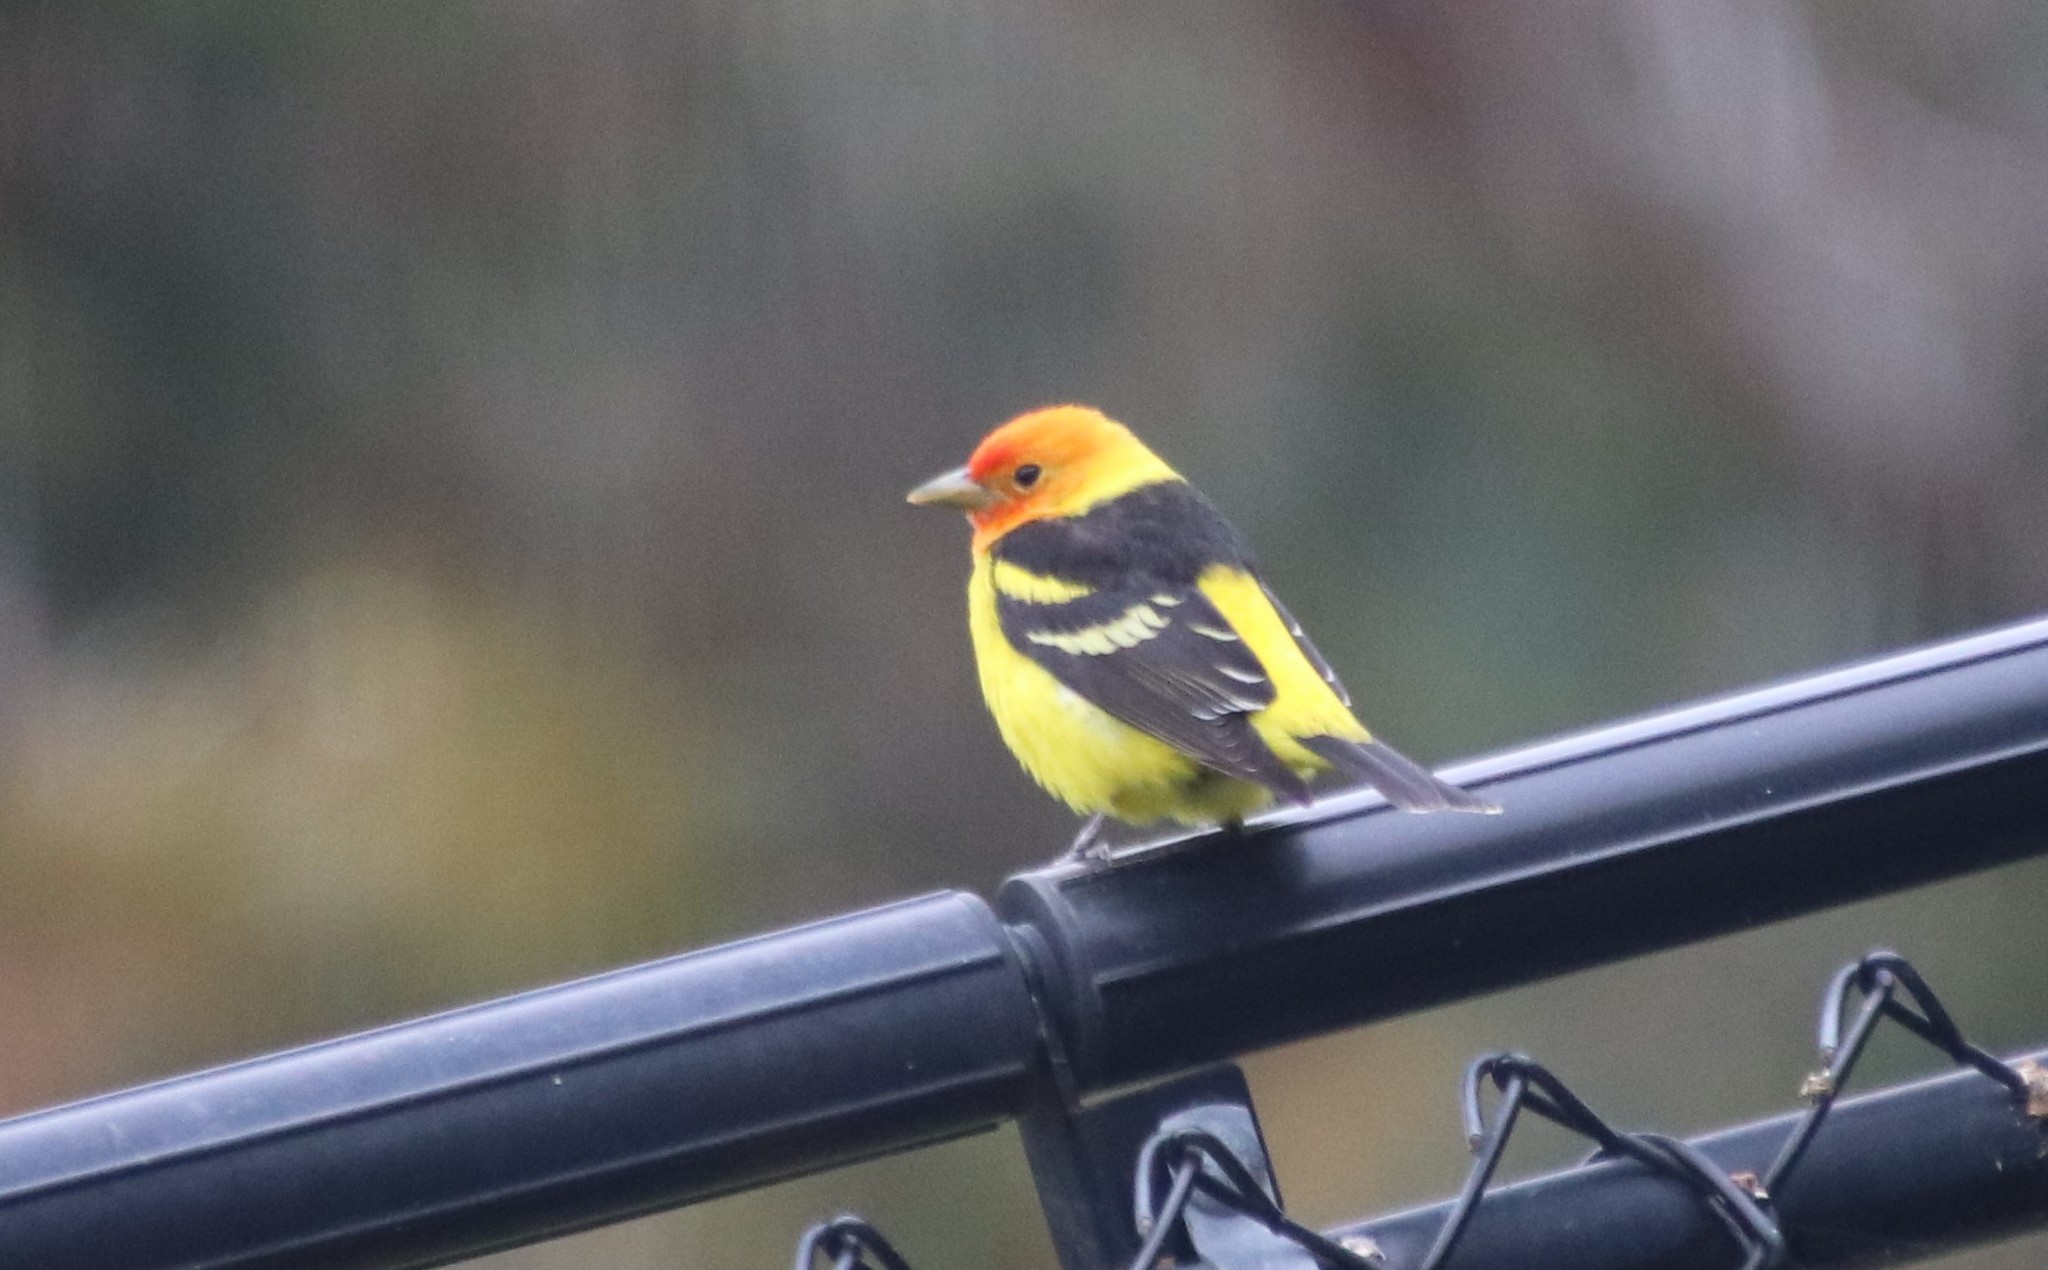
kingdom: Animalia
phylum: Chordata
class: Aves
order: Passeriformes
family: Cardinalidae
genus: Piranga
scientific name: Piranga ludoviciana
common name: Western tanager
